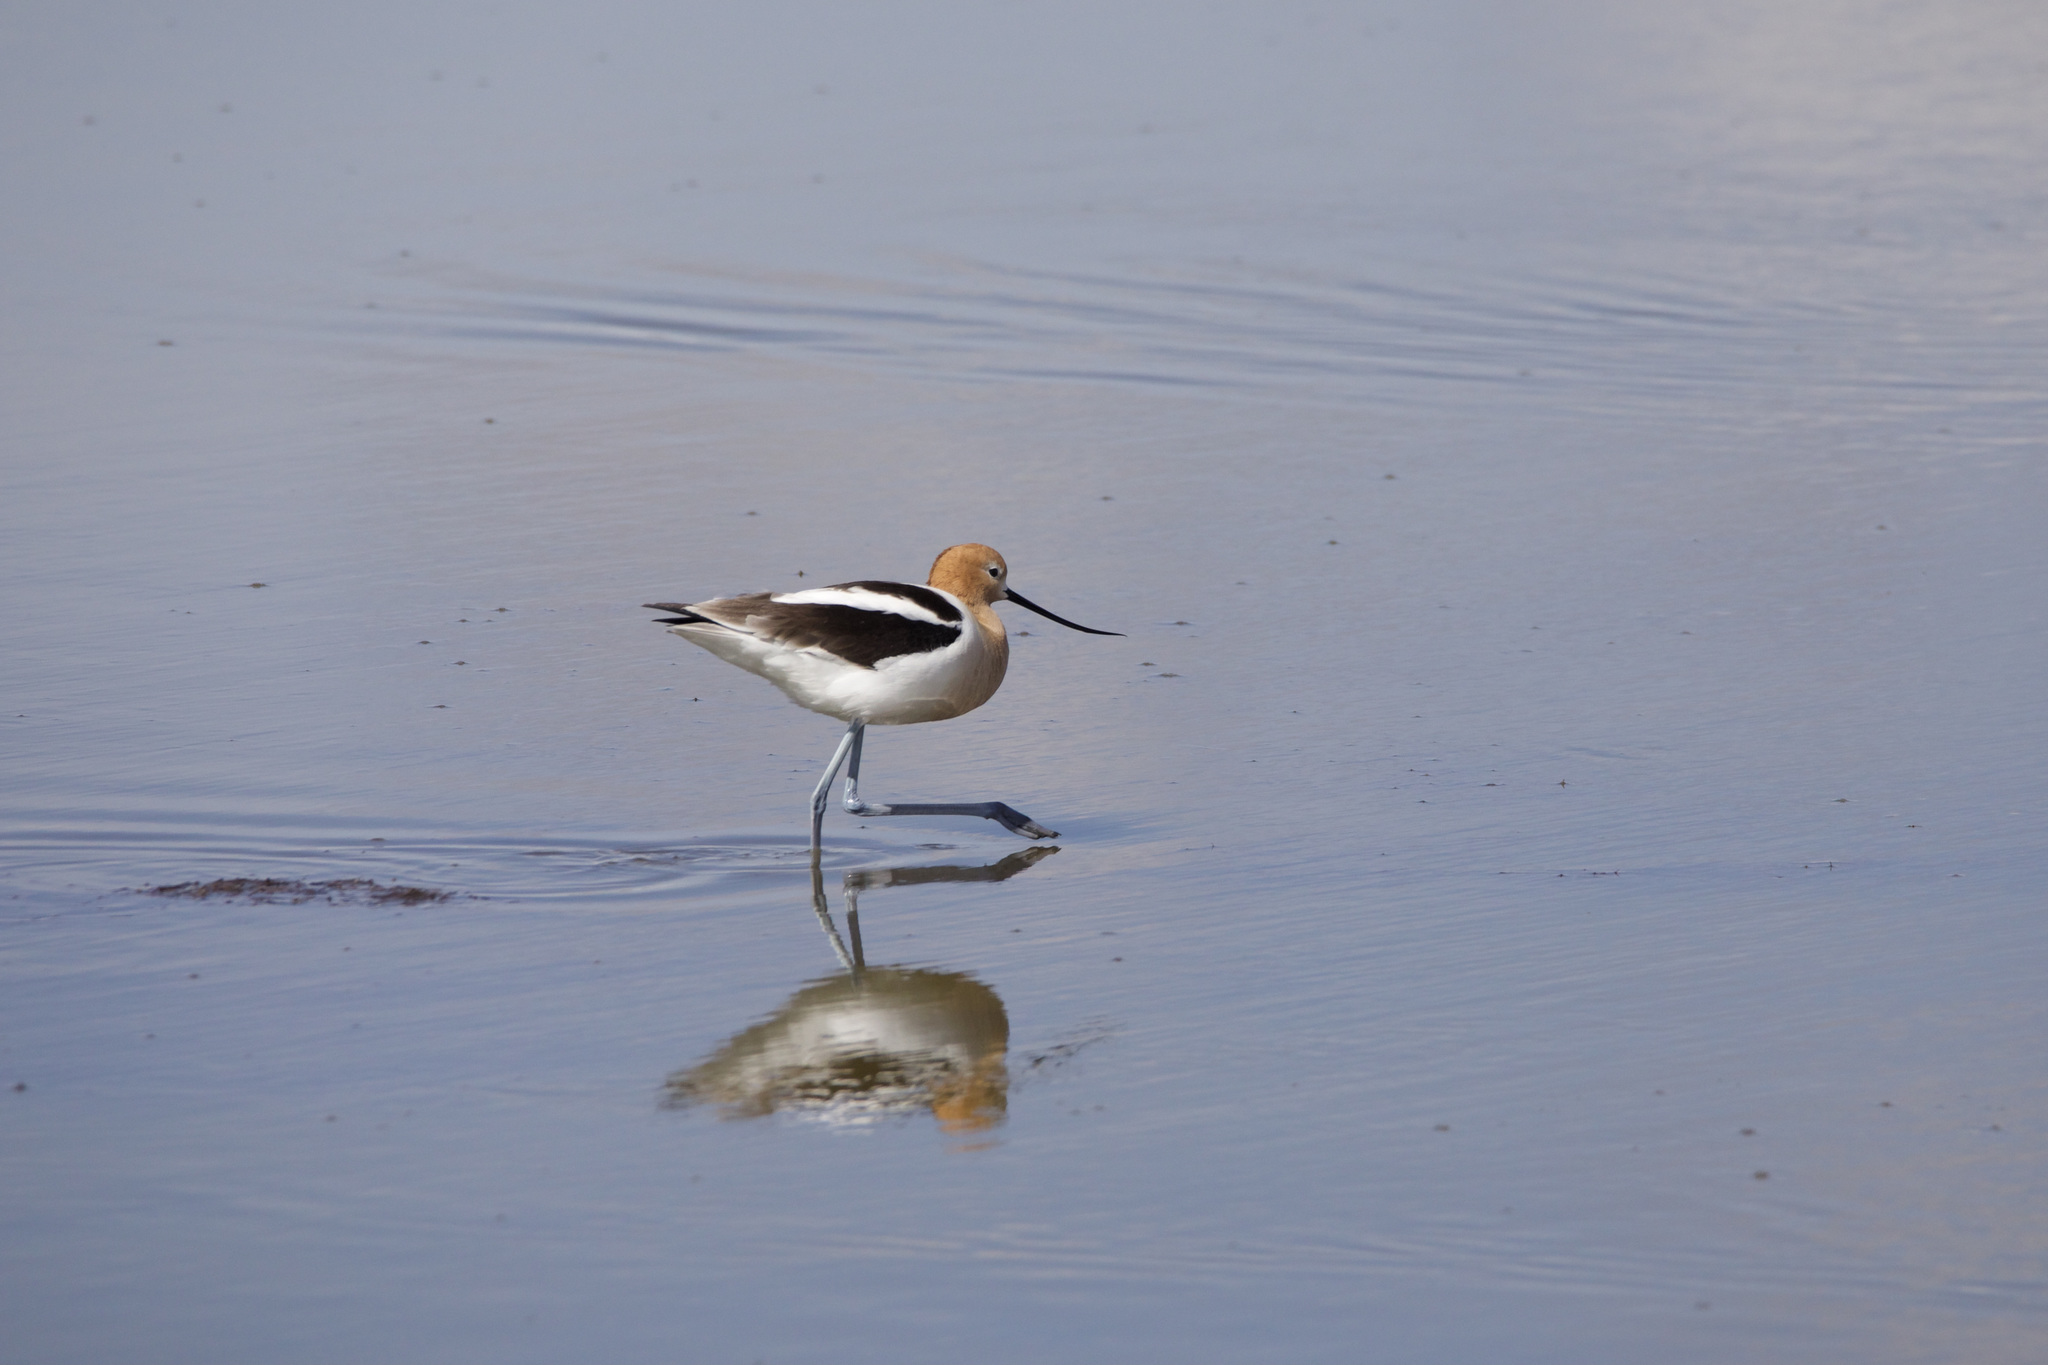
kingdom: Animalia
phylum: Chordata
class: Aves
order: Charadriiformes
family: Recurvirostridae
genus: Recurvirostra
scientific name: Recurvirostra americana
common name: American avocet
